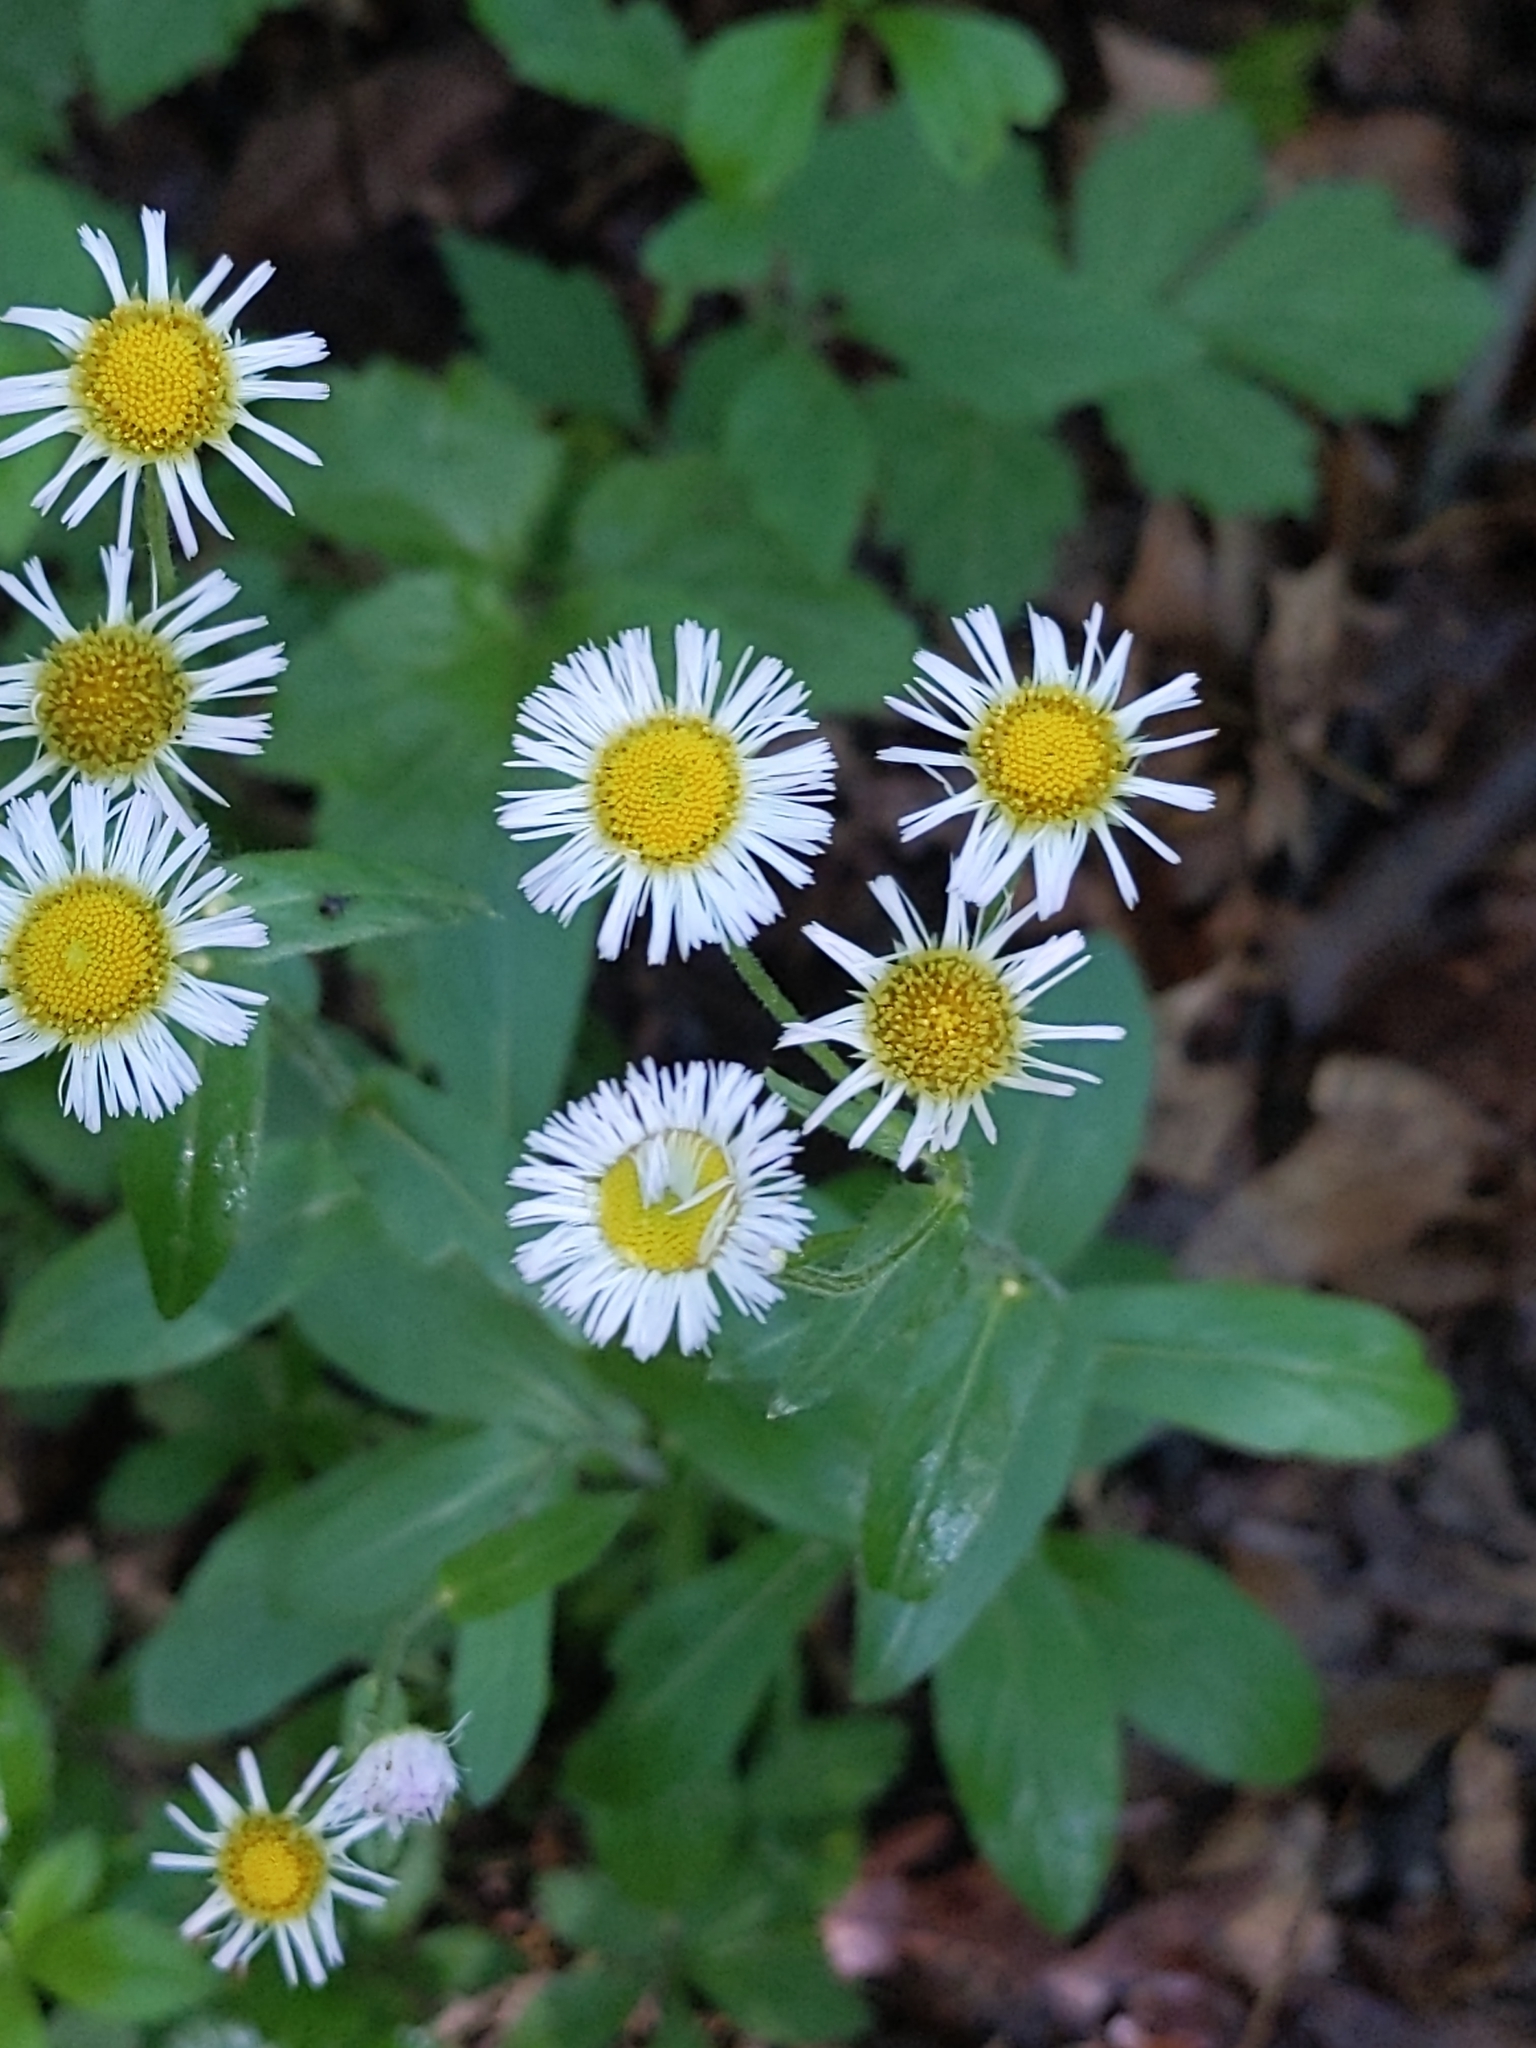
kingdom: Plantae
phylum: Tracheophyta
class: Magnoliopsida
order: Asterales
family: Asteraceae
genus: Erigeron
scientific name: Erigeron philadelphicus
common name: Robin's-plantain
